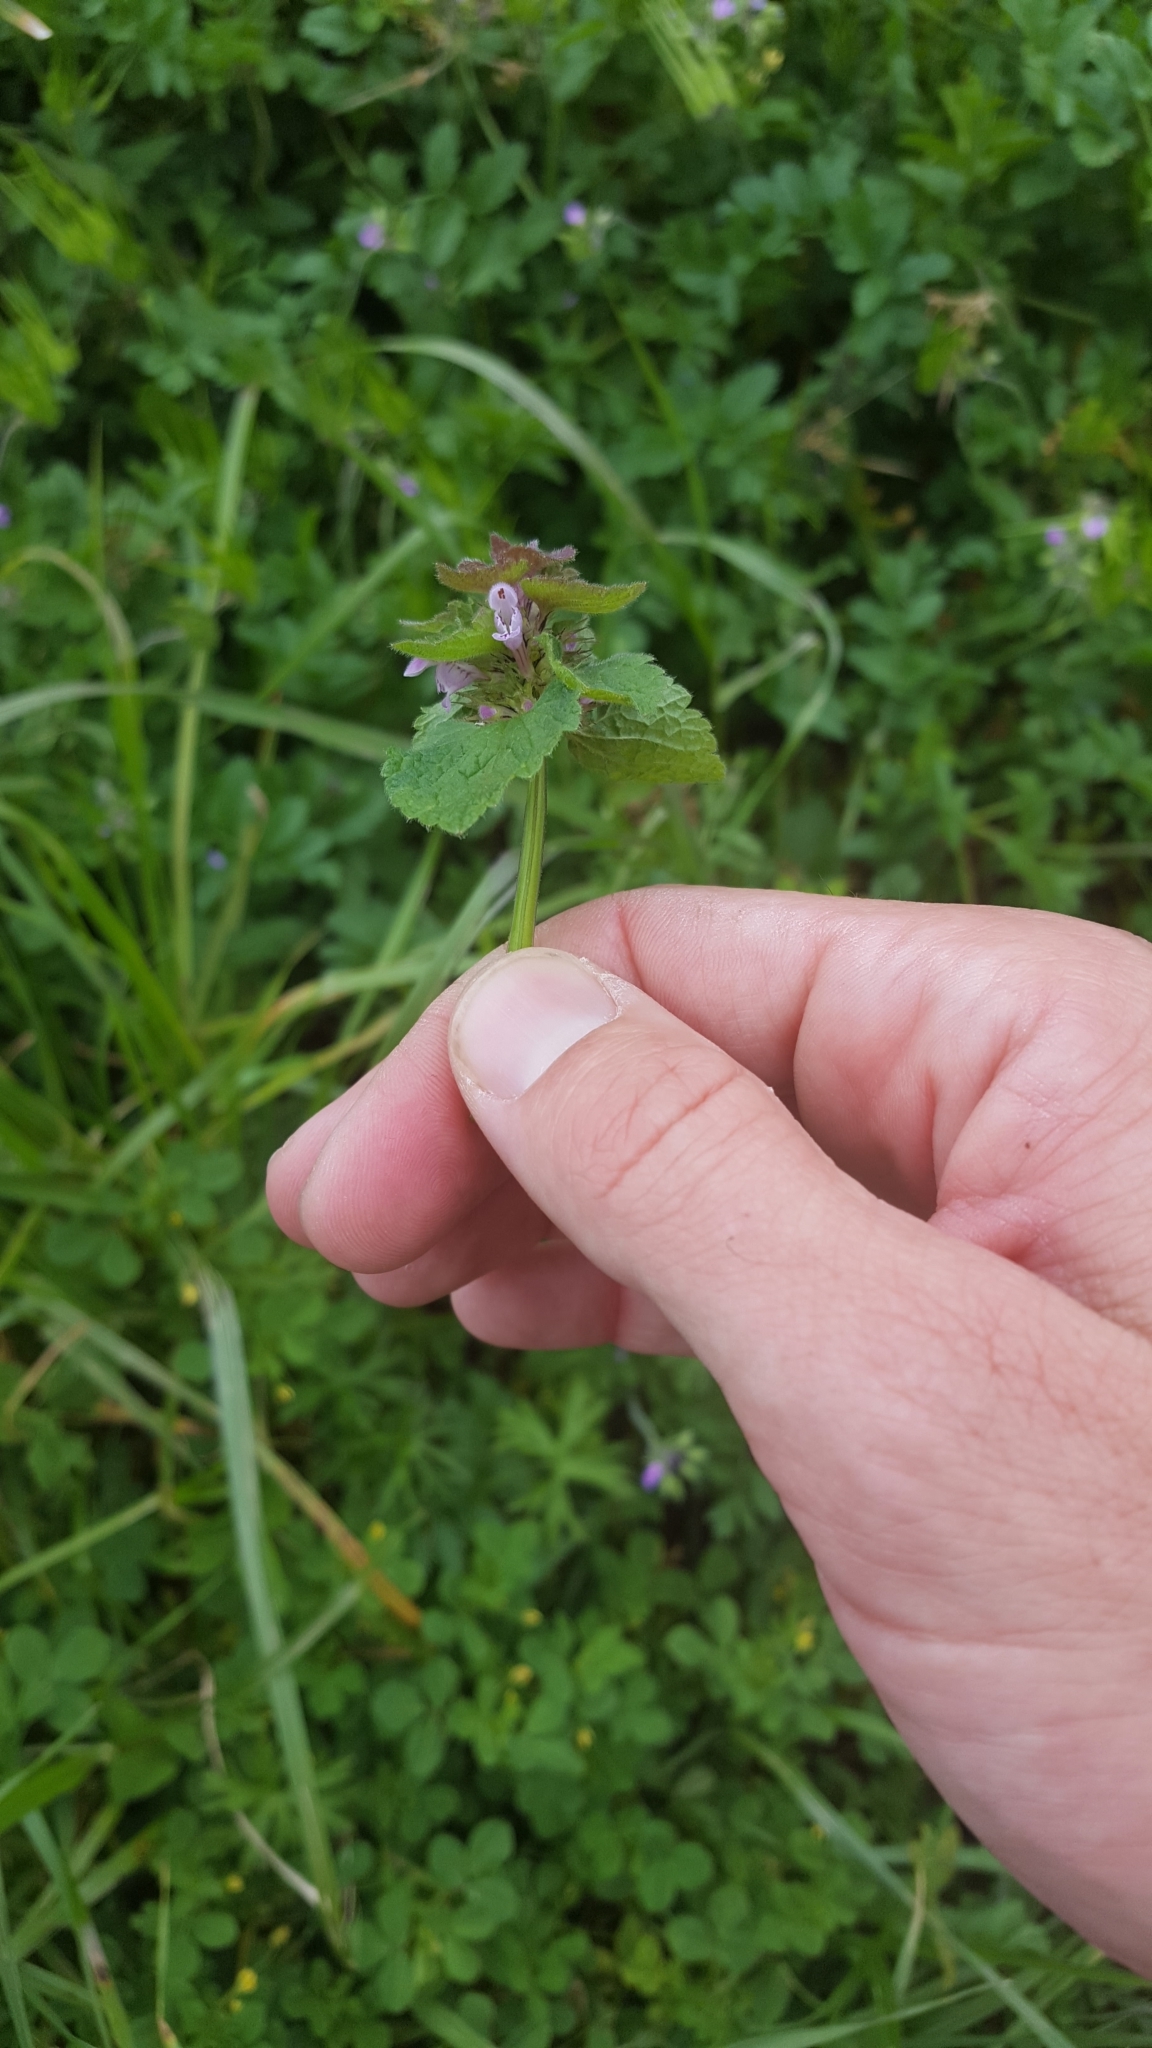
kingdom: Plantae
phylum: Tracheophyta
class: Magnoliopsida
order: Lamiales
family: Lamiaceae
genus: Lamium
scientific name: Lamium purpureum
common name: Red dead-nettle
